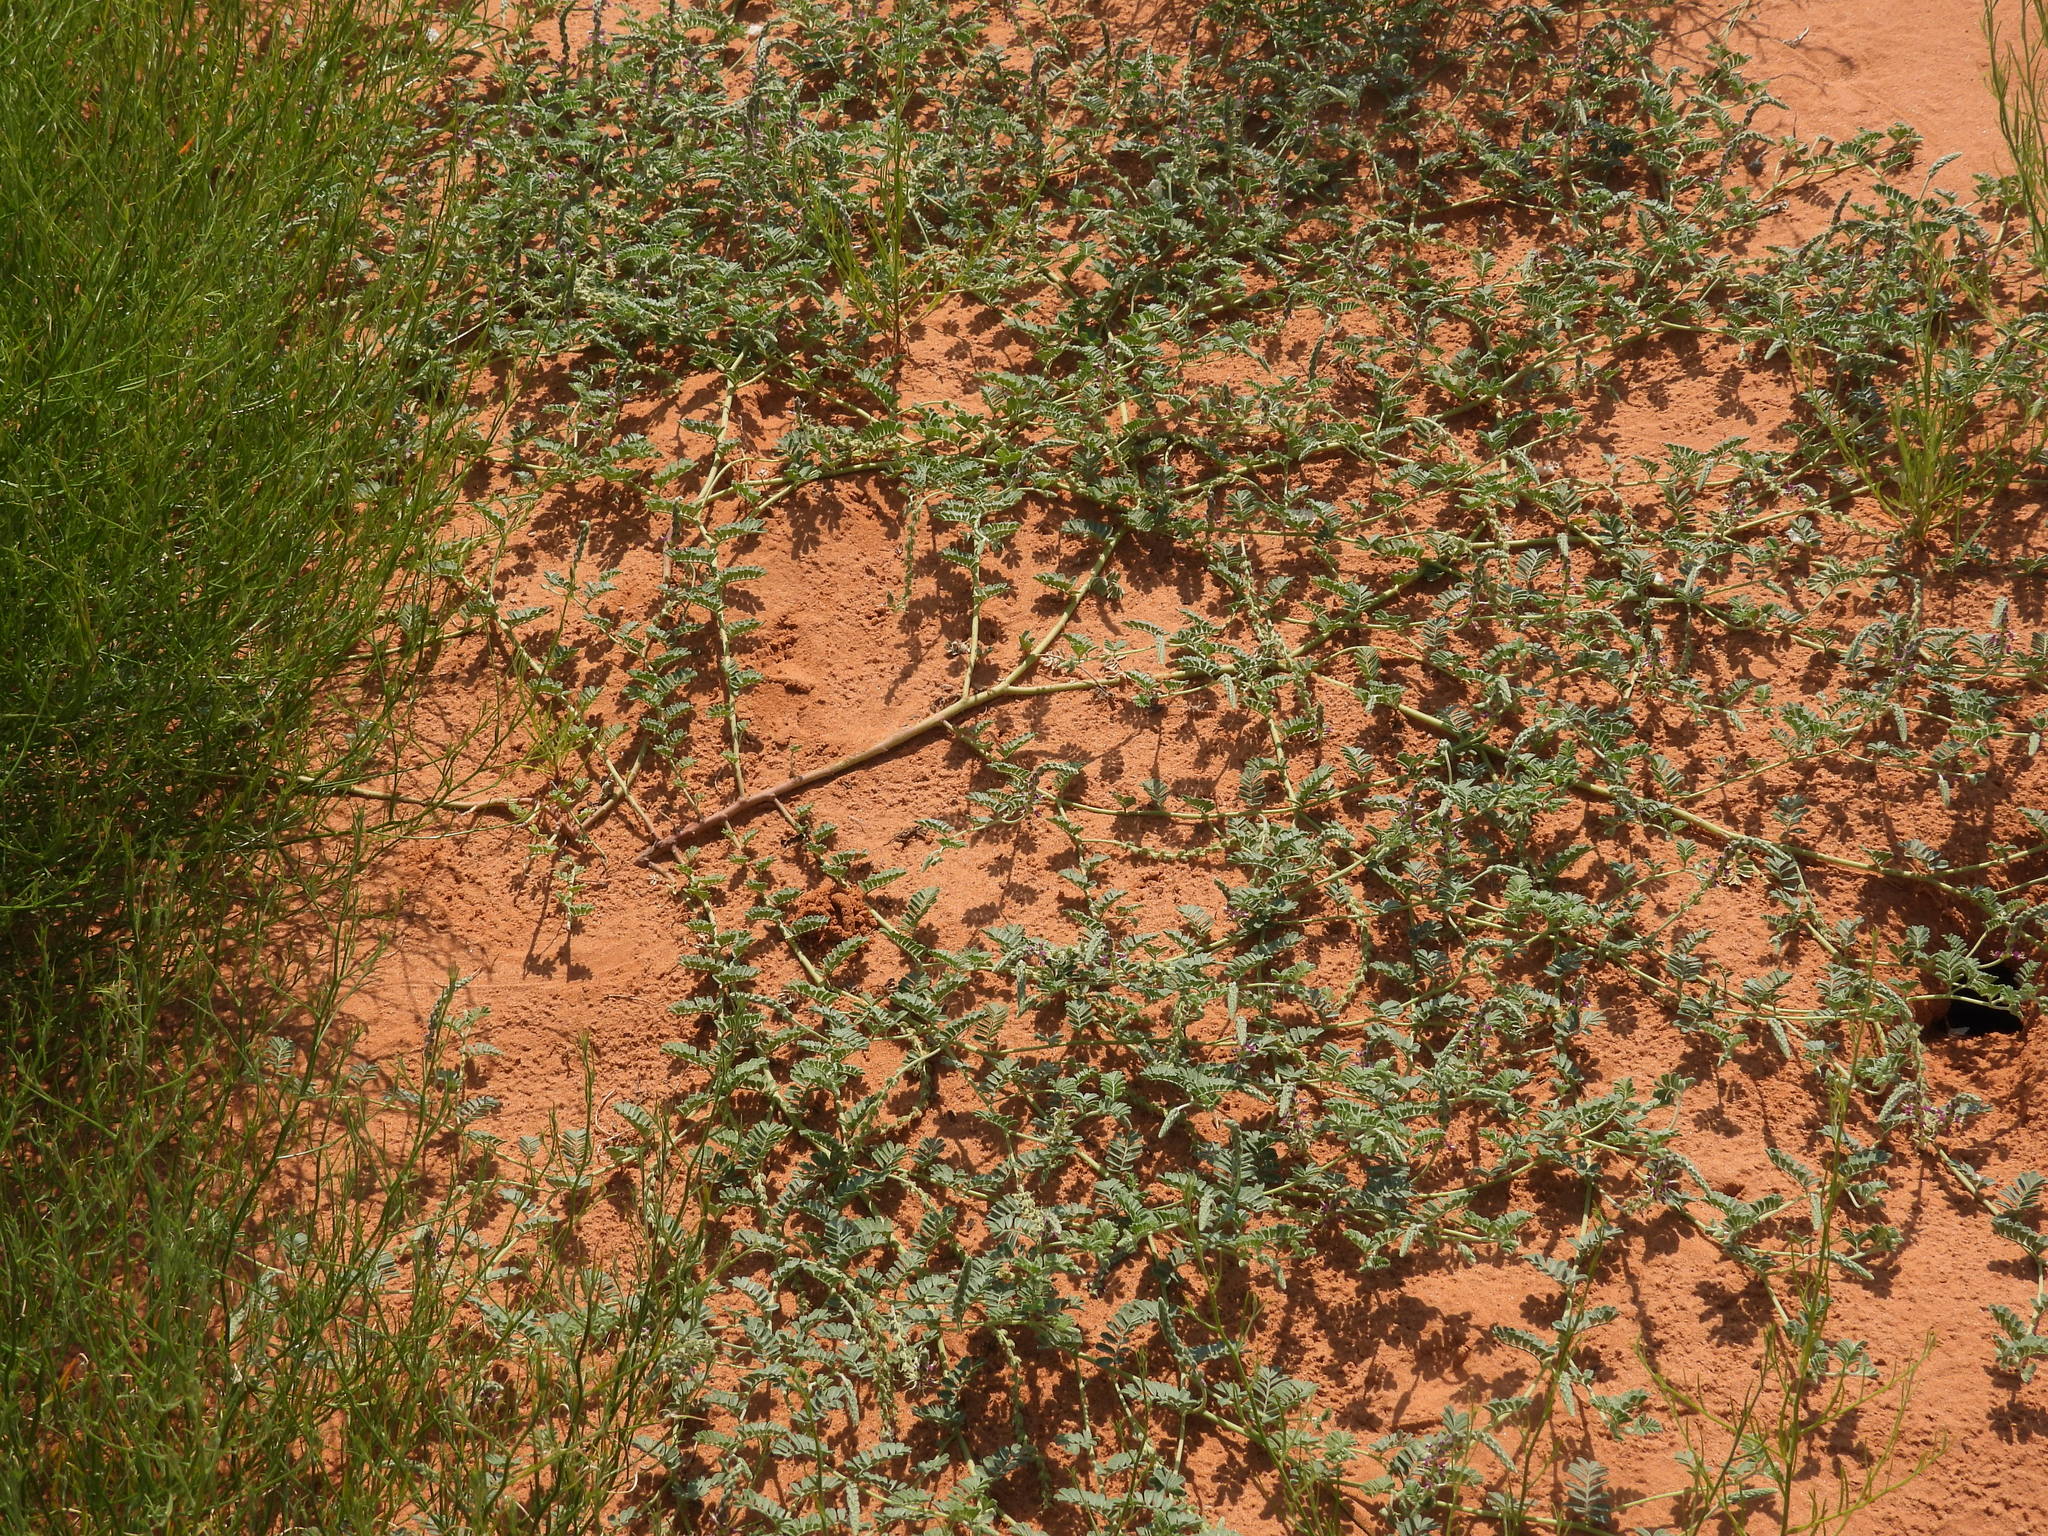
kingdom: Plantae
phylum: Tracheophyta
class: Magnoliopsida
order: Fabales
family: Fabaceae
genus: Dalea
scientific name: Dalea lanata
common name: Woolly dalea
